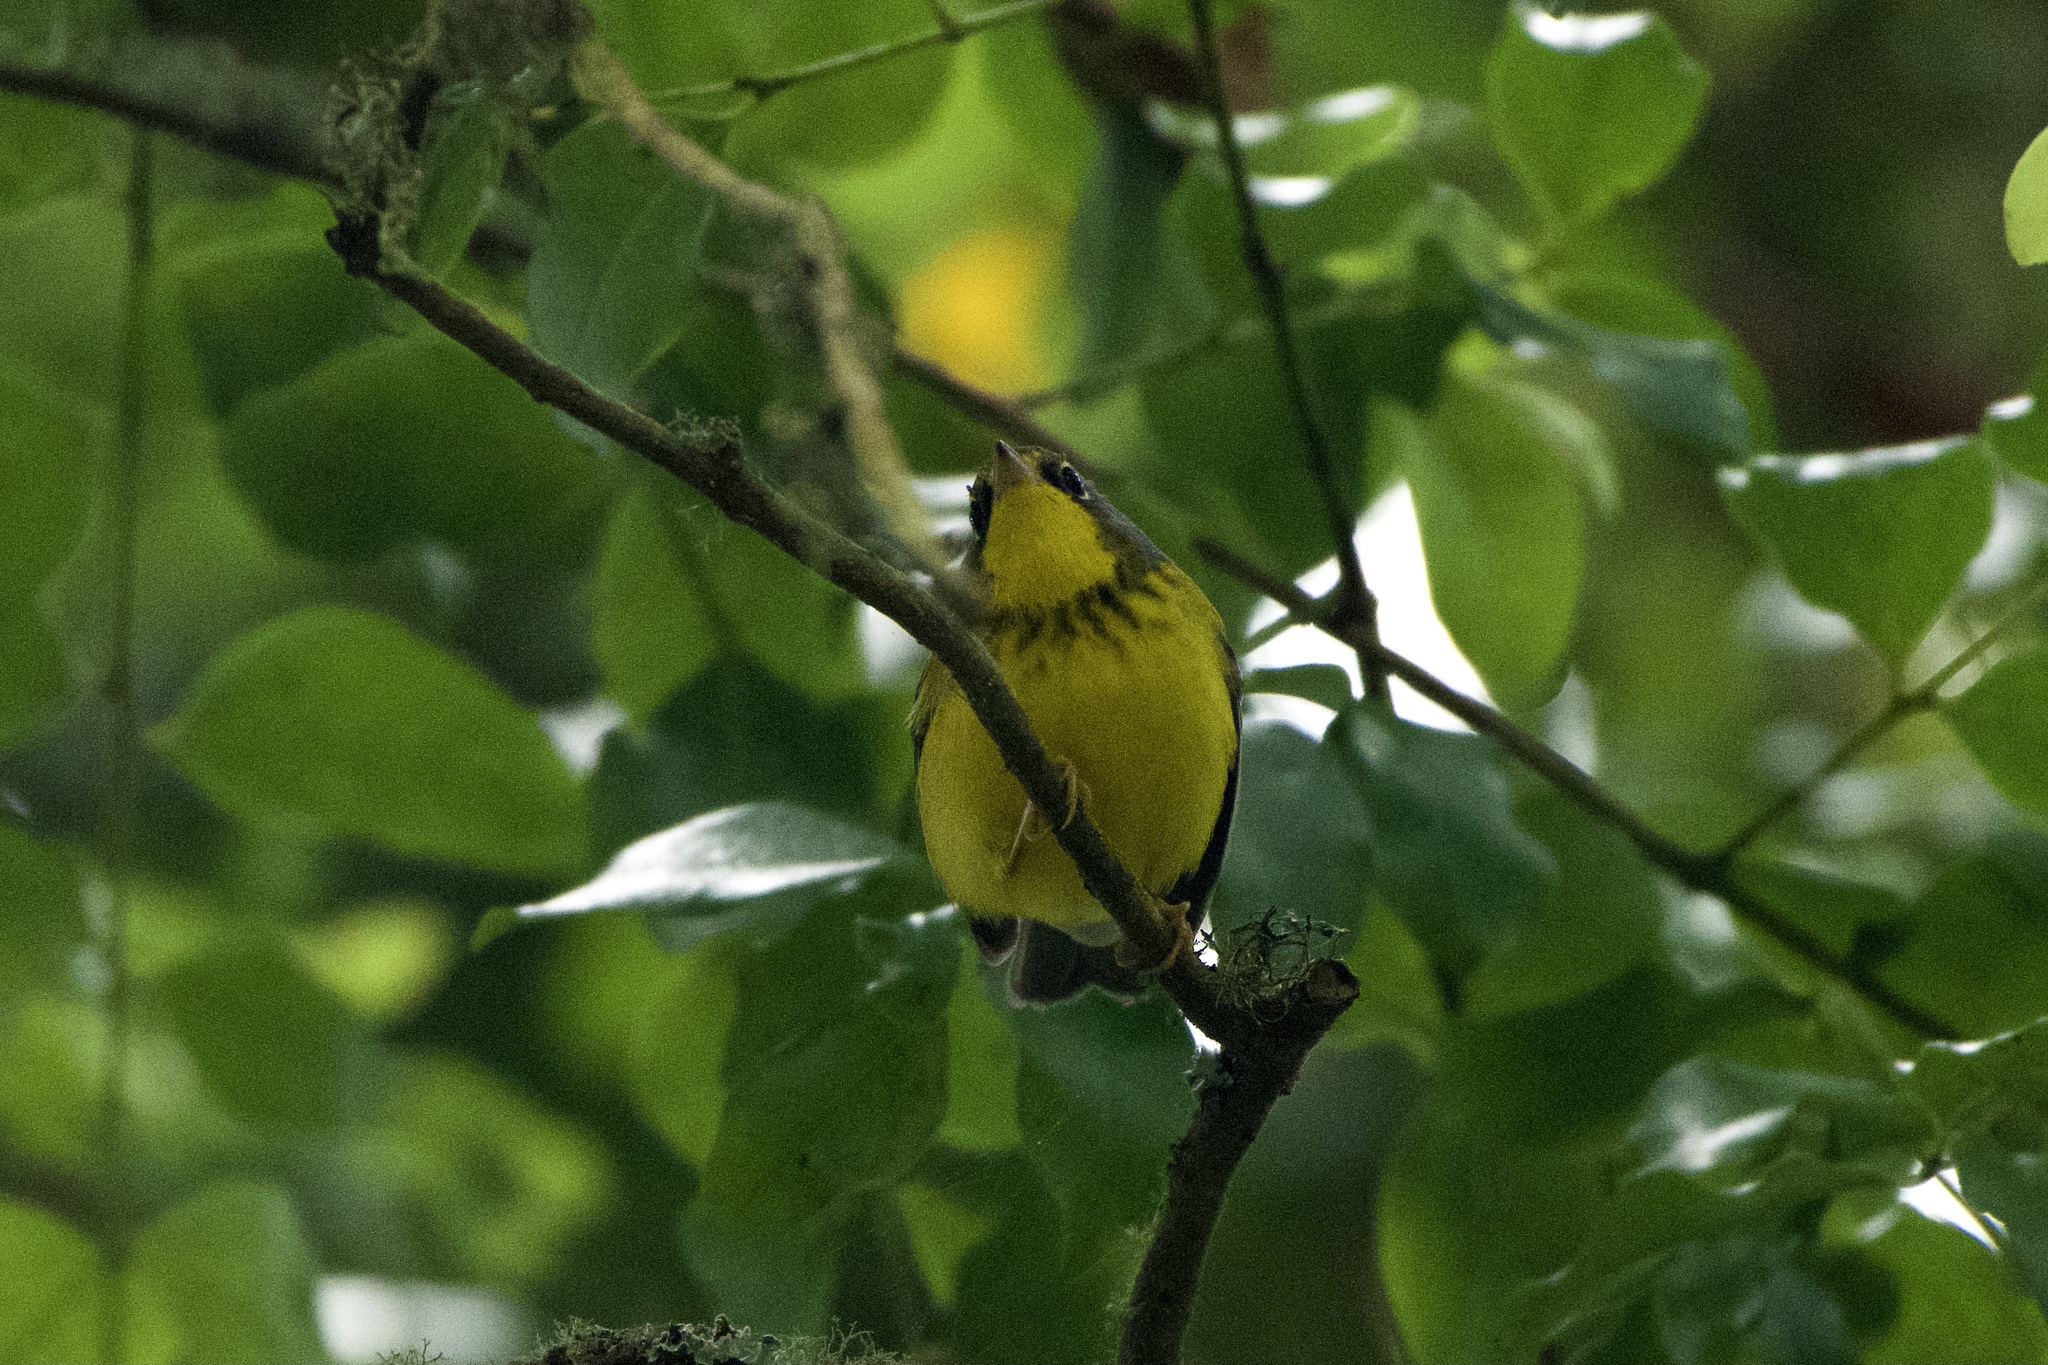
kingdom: Animalia
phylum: Chordata
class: Aves
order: Passeriformes
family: Parulidae
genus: Cardellina
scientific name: Cardellina canadensis
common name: Canada warbler
